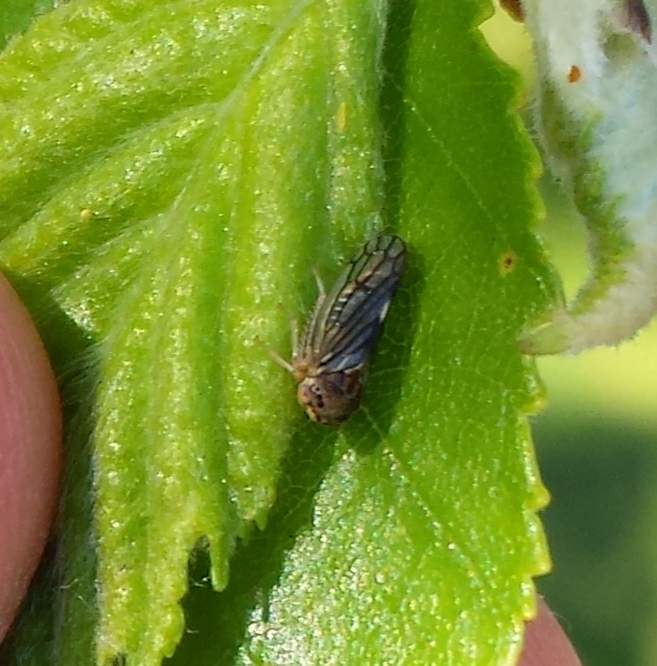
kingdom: Animalia
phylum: Arthropoda
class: Insecta
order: Hemiptera
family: Cicadellidae
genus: Oncopsis
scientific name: Oncopsis deluda
